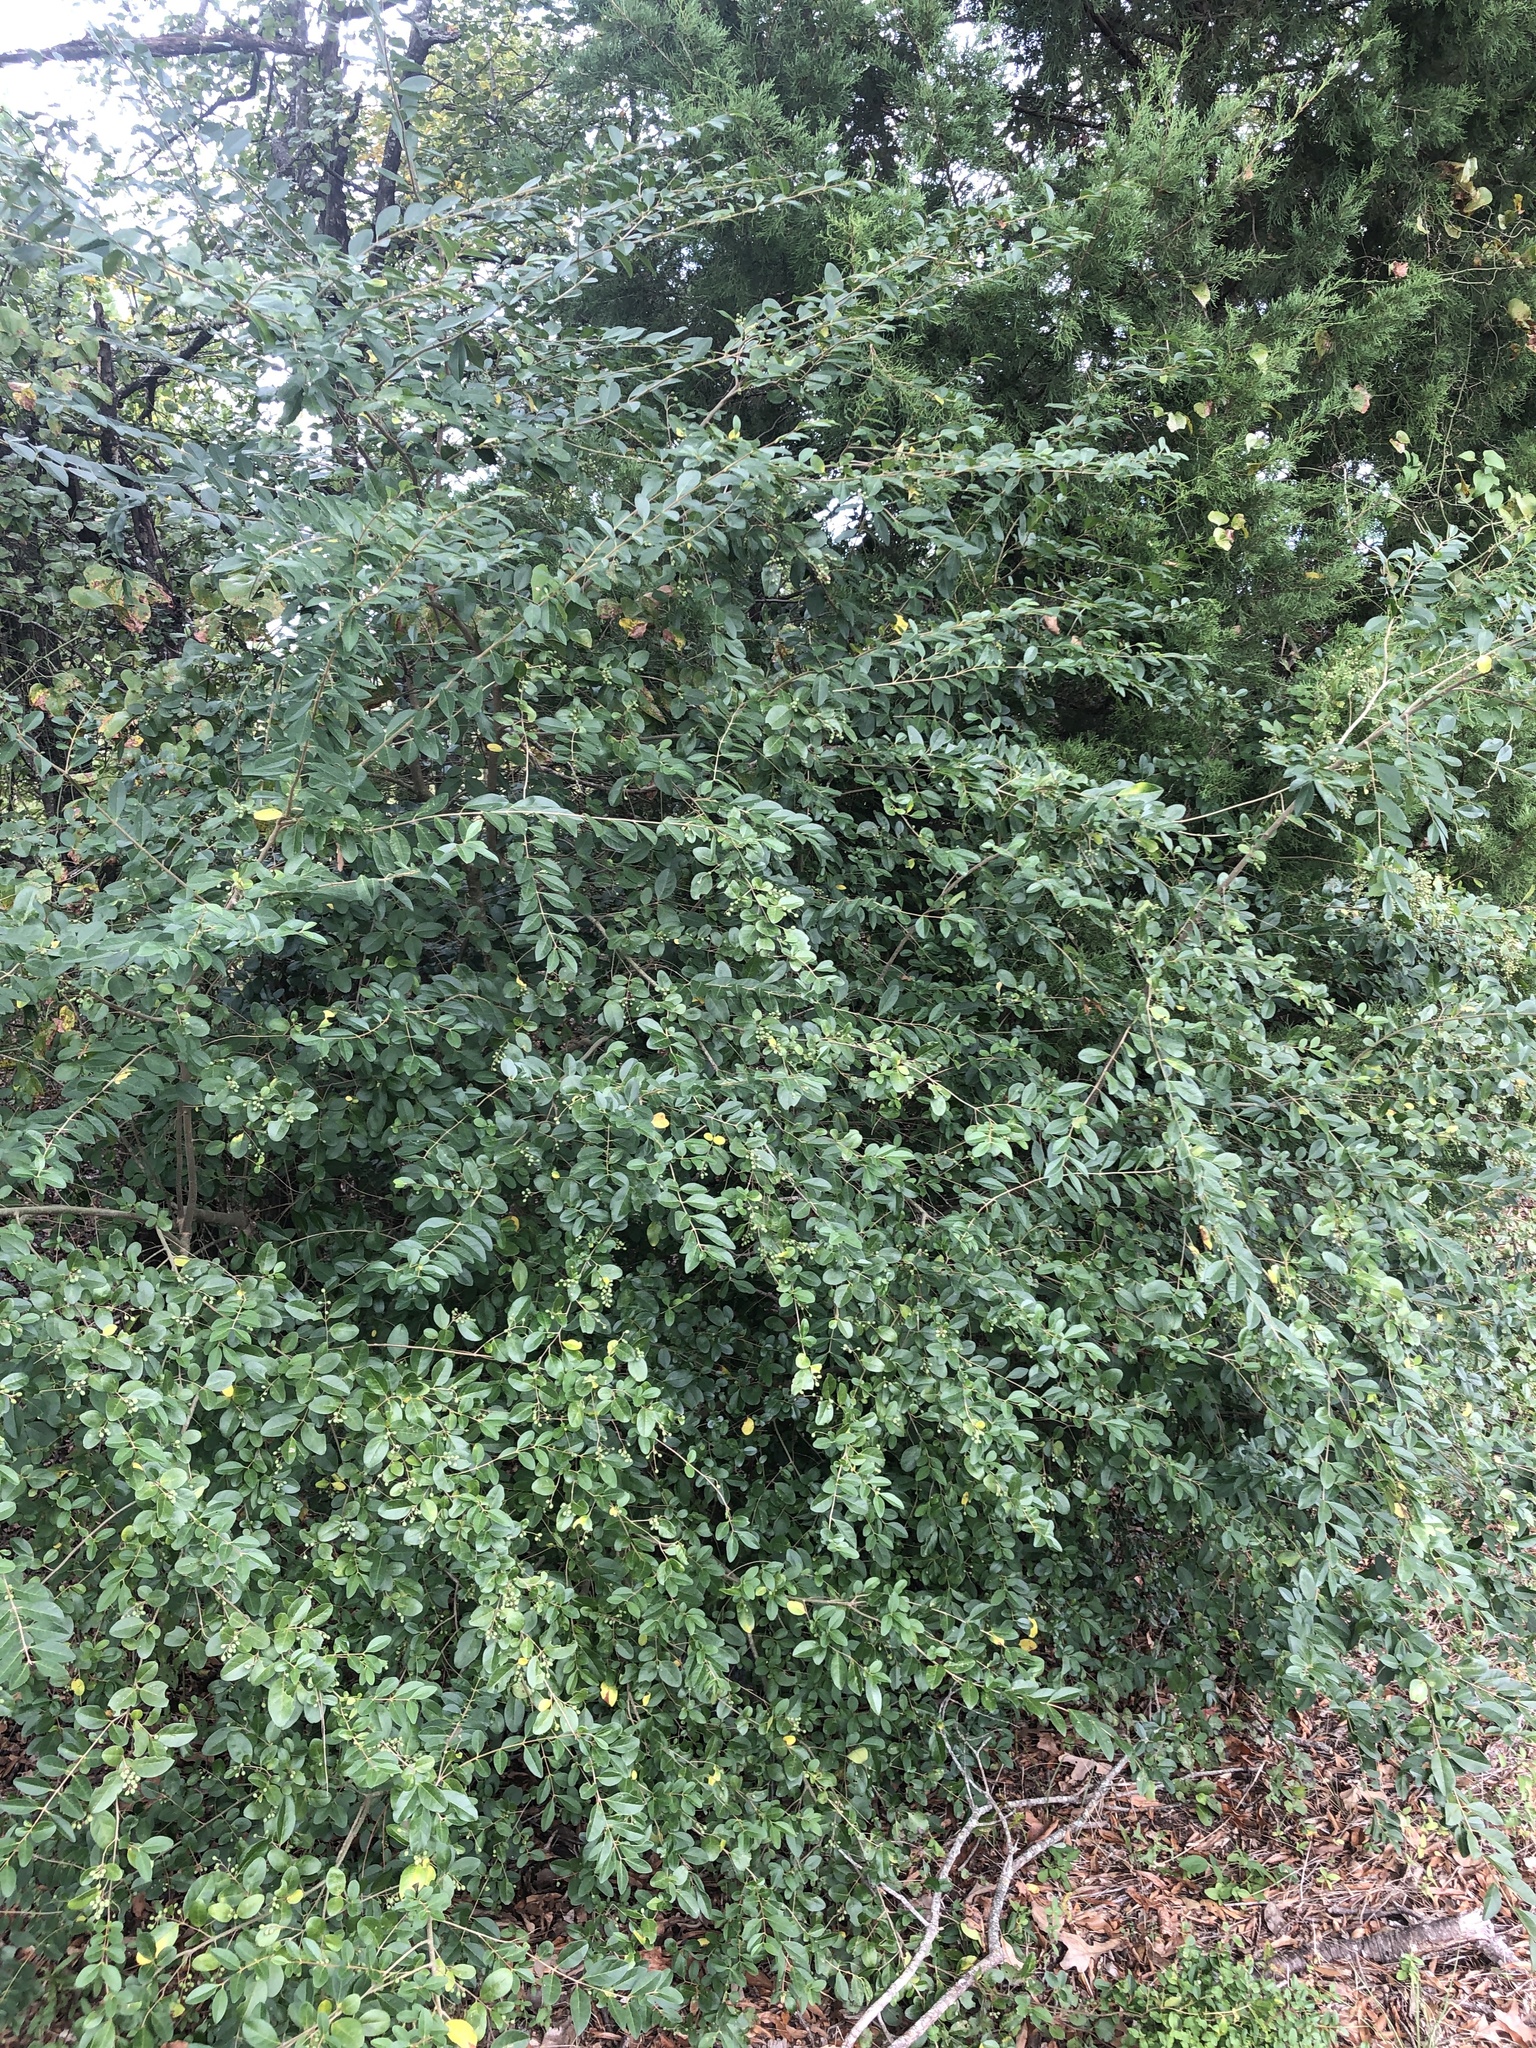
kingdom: Plantae
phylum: Tracheophyta
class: Magnoliopsida
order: Lamiales
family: Oleaceae
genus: Ligustrum
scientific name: Ligustrum sinense
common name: Chinese privet
